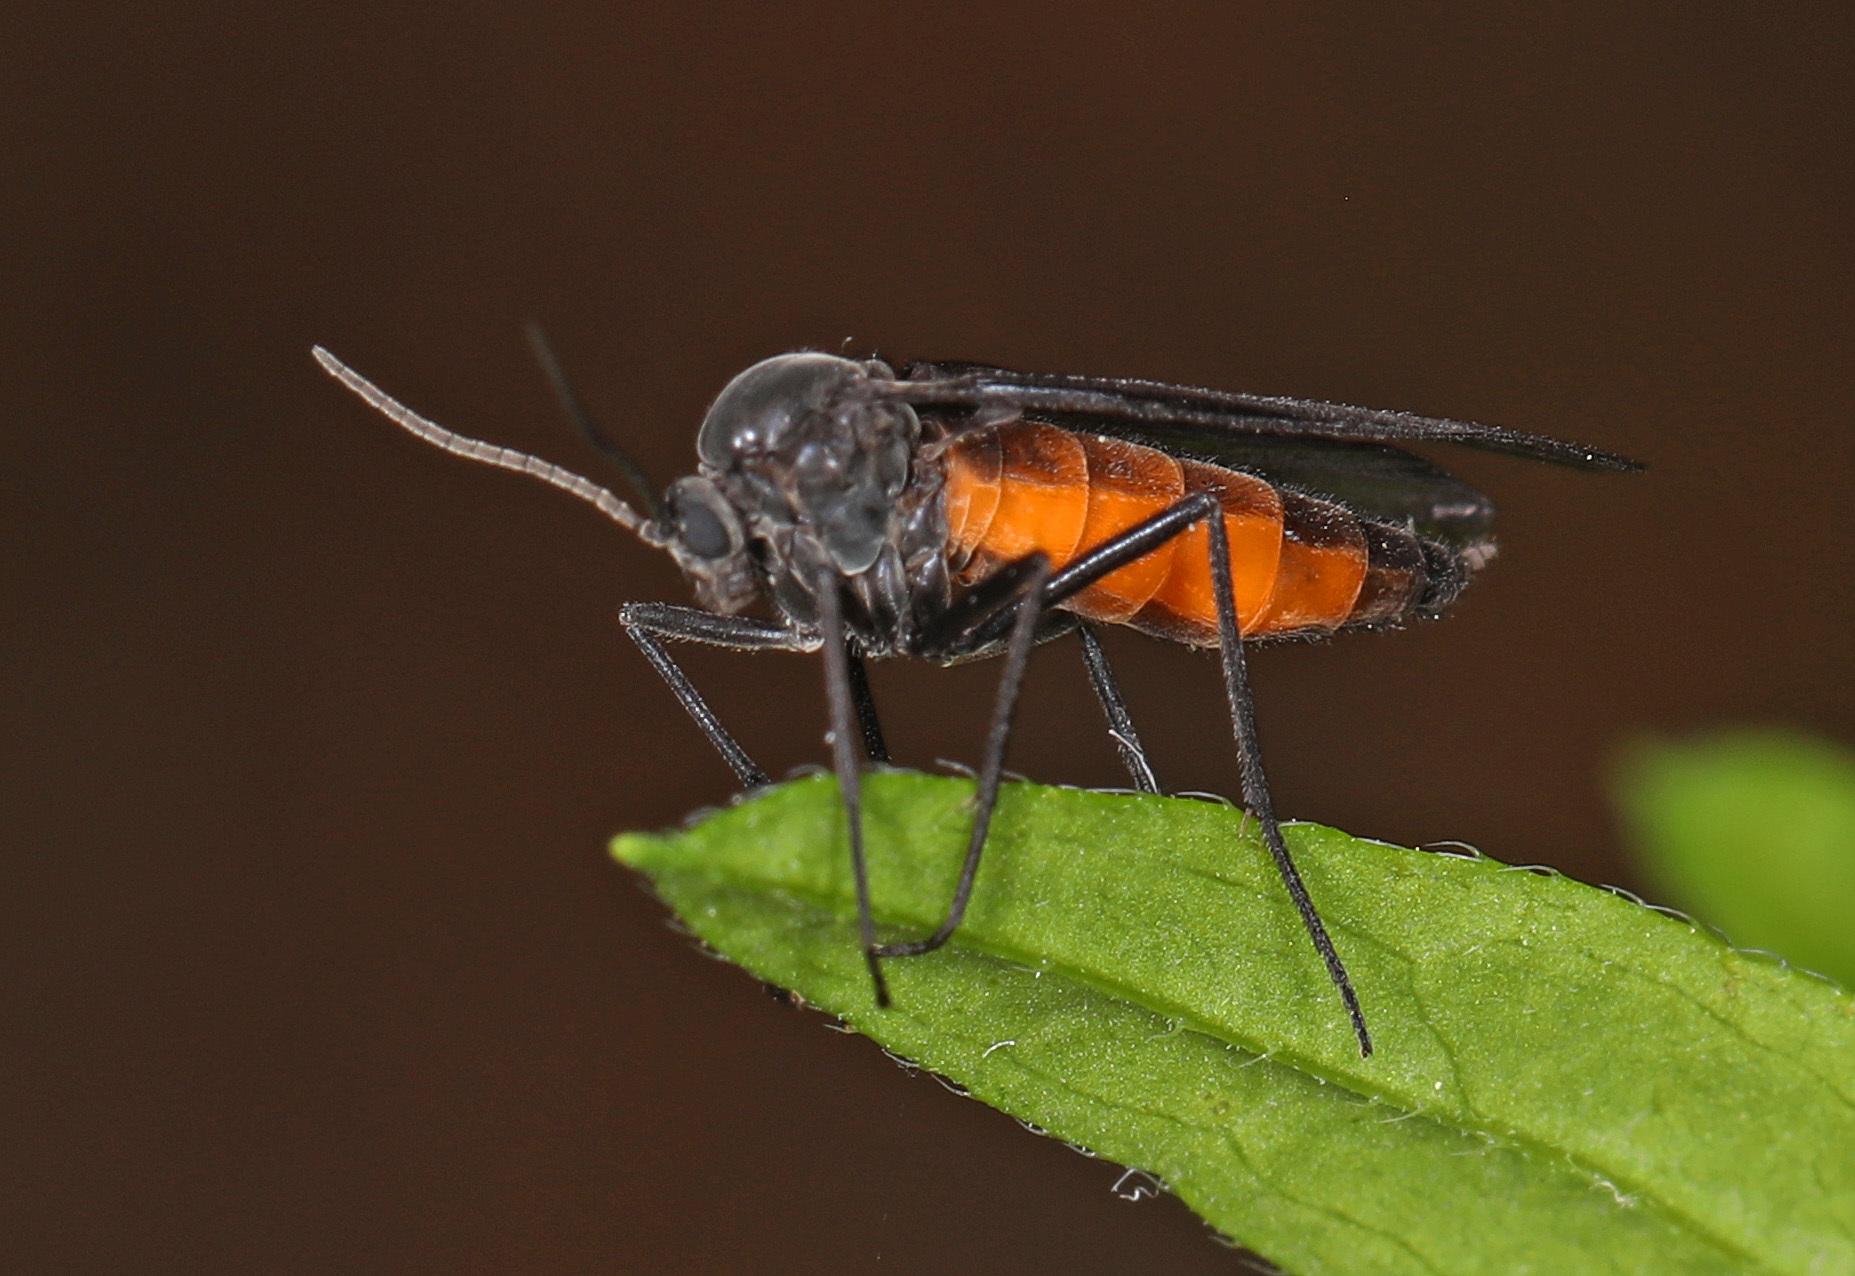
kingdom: Animalia
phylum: Arthropoda
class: Insecta
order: Diptera
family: Sciaridae
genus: Odontosciara
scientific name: Odontosciara nigra
